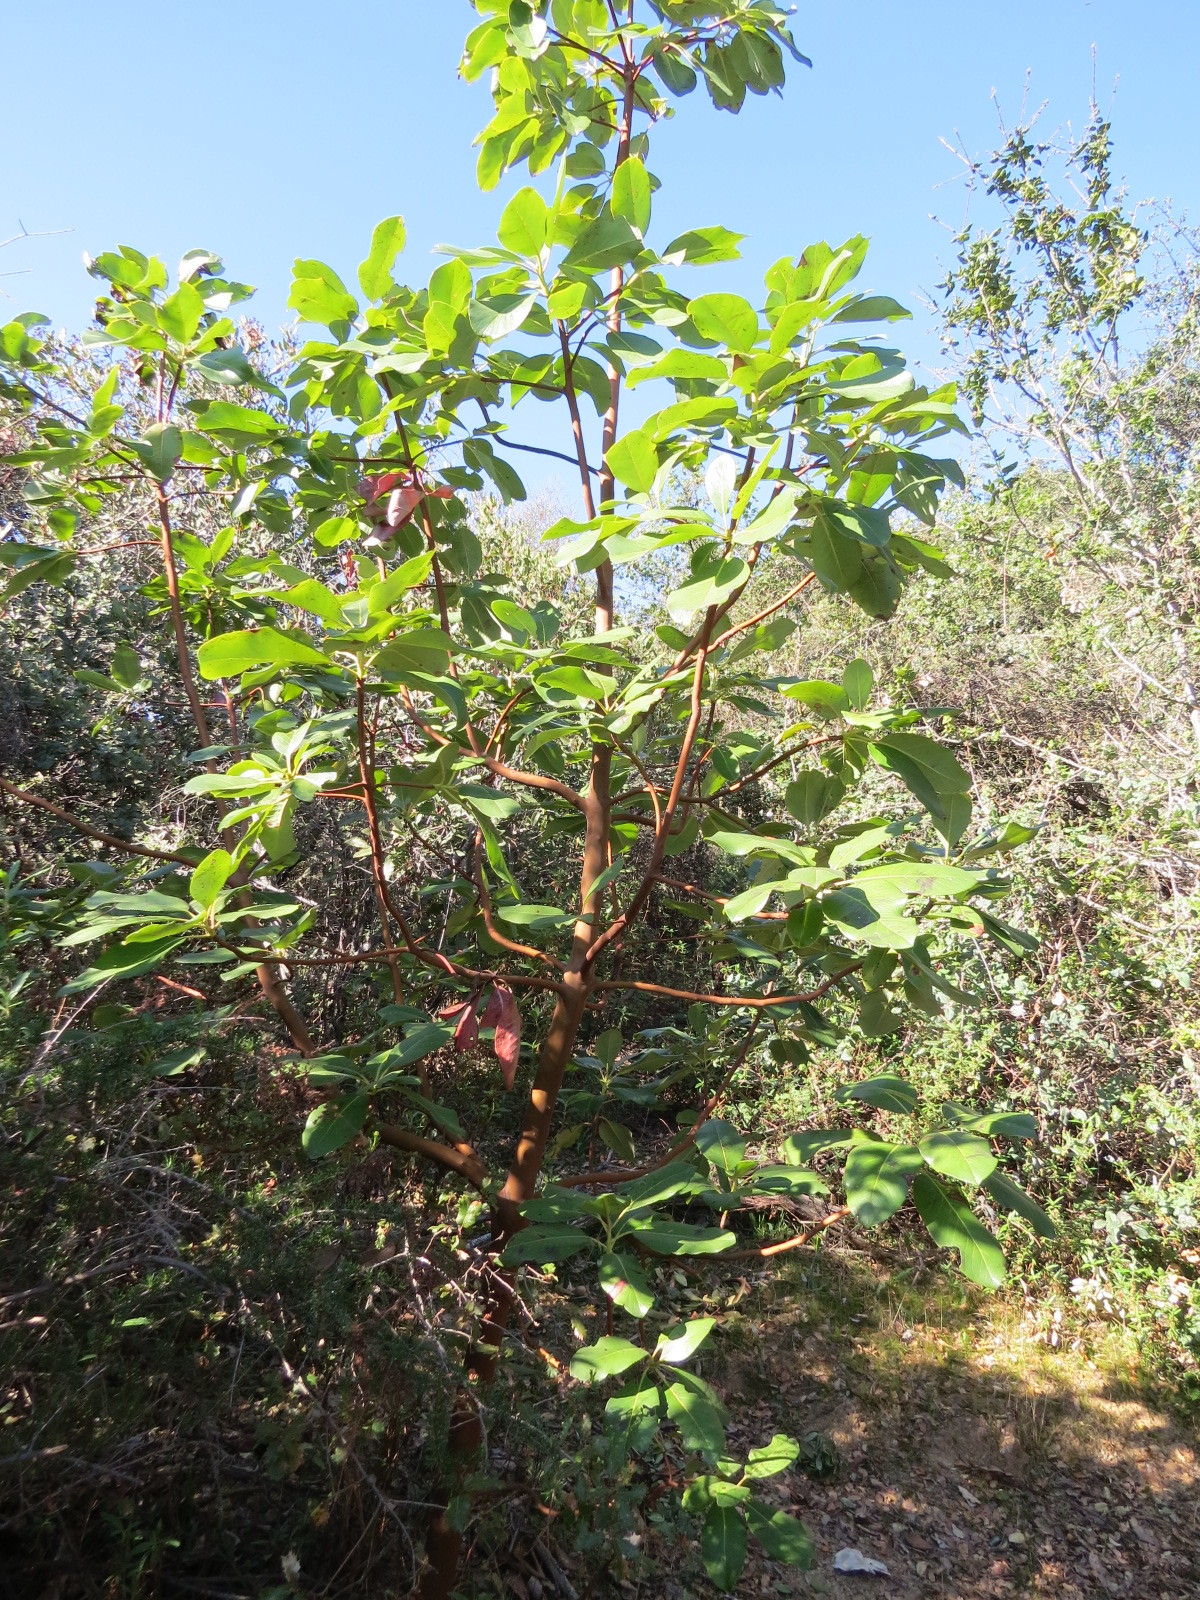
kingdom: Plantae
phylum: Tracheophyta
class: Magnoliopsida
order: Ericales
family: Ericaceae
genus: Arbutus
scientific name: Arbutus menziesii
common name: Pacific madrone
